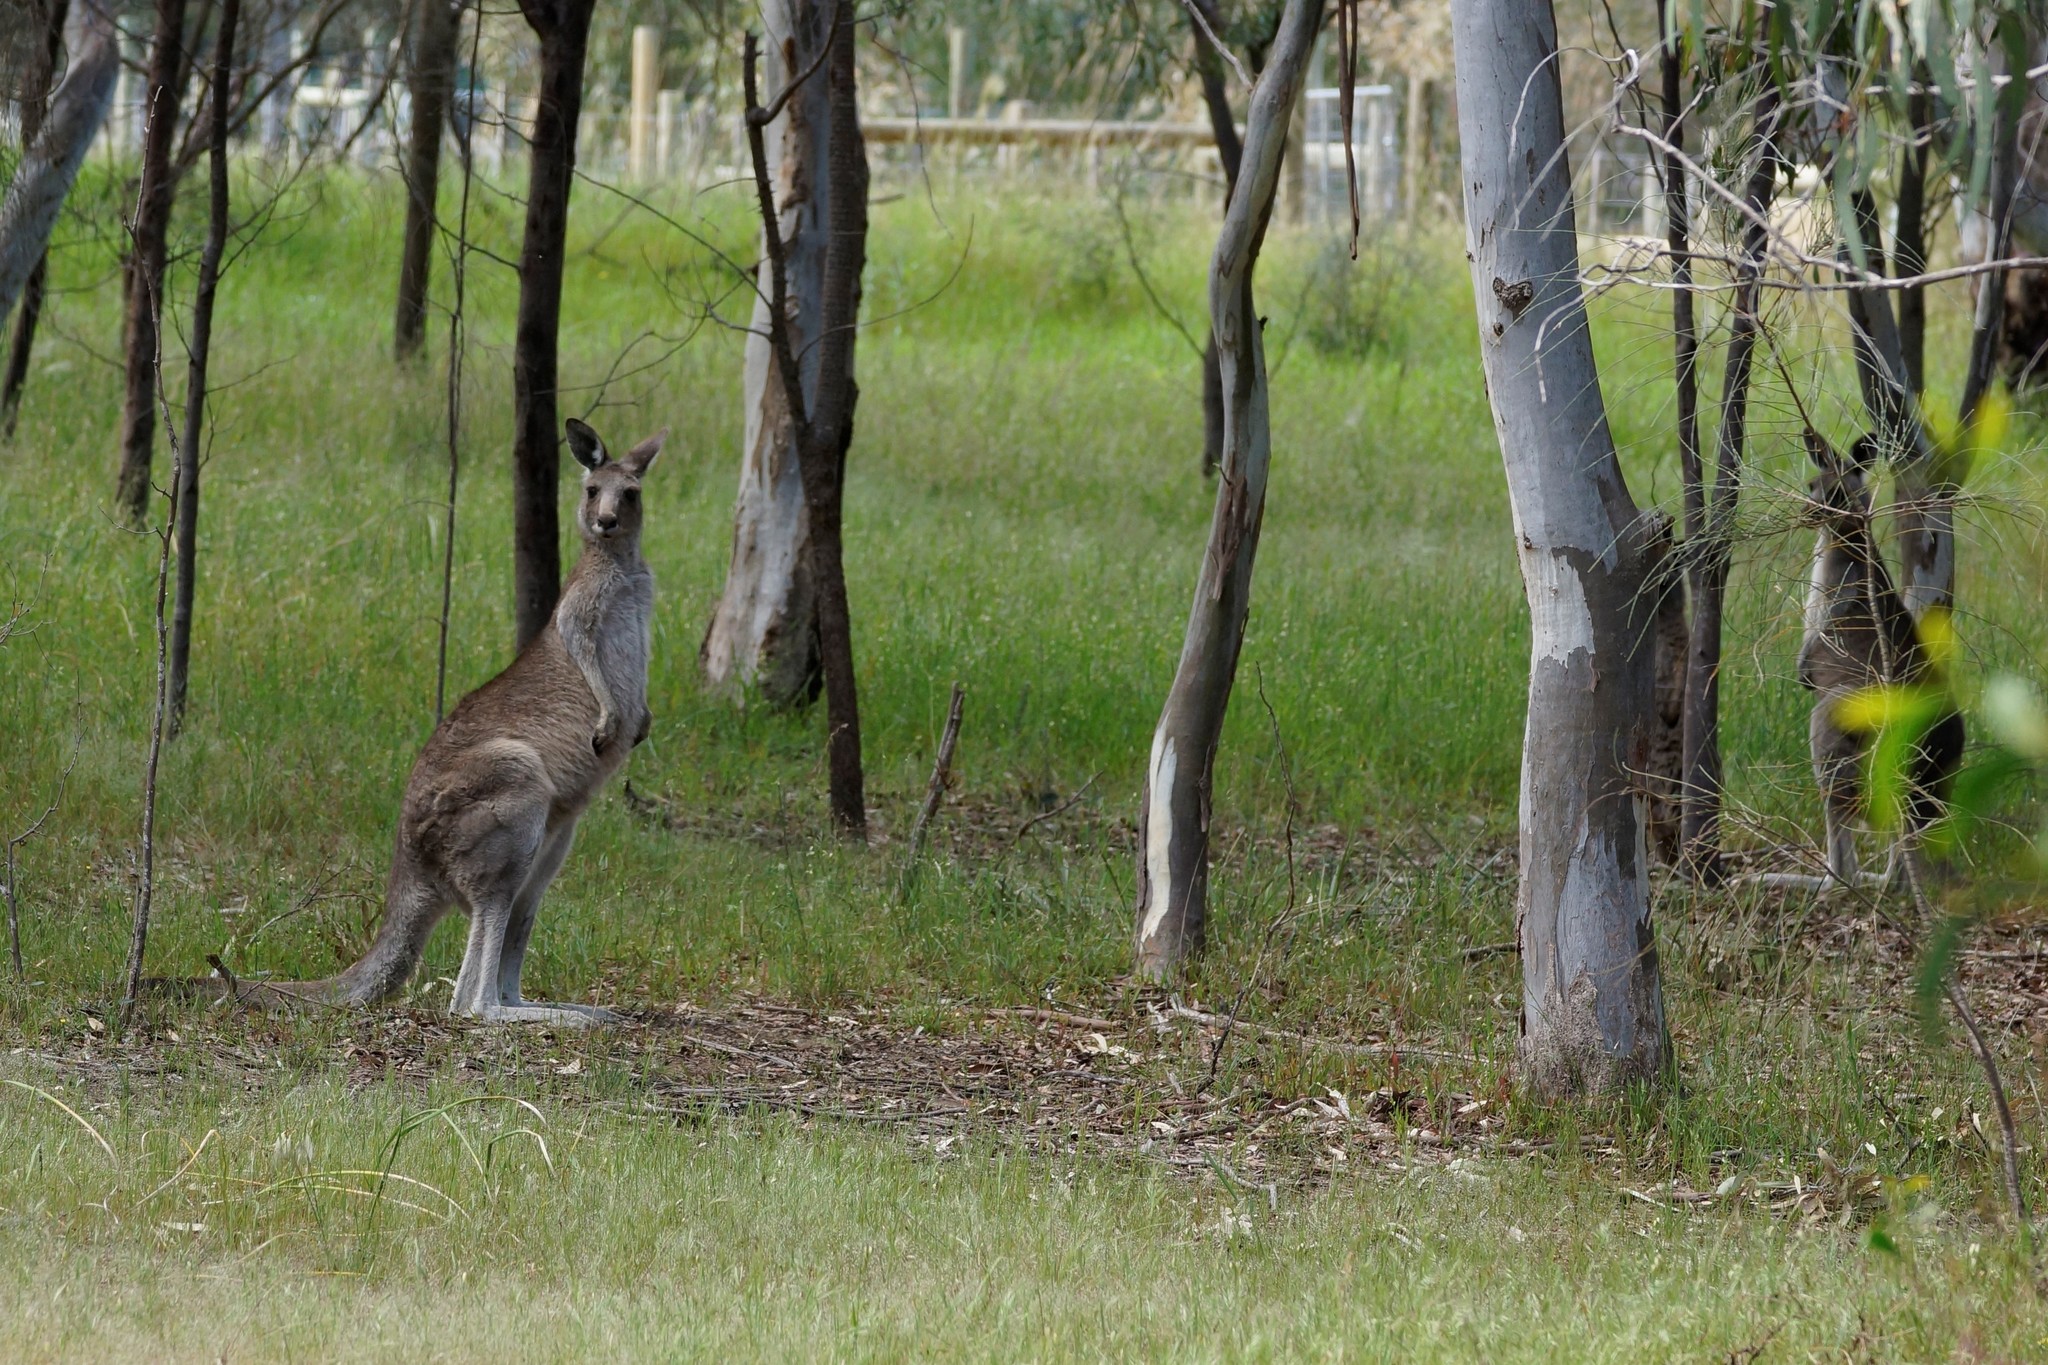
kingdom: Animalia
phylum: Chordata
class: Mammalia
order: Diprotodontia
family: Macropodidae
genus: Macropus
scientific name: Macropus giganteus
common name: Eastern grey kangaroo
